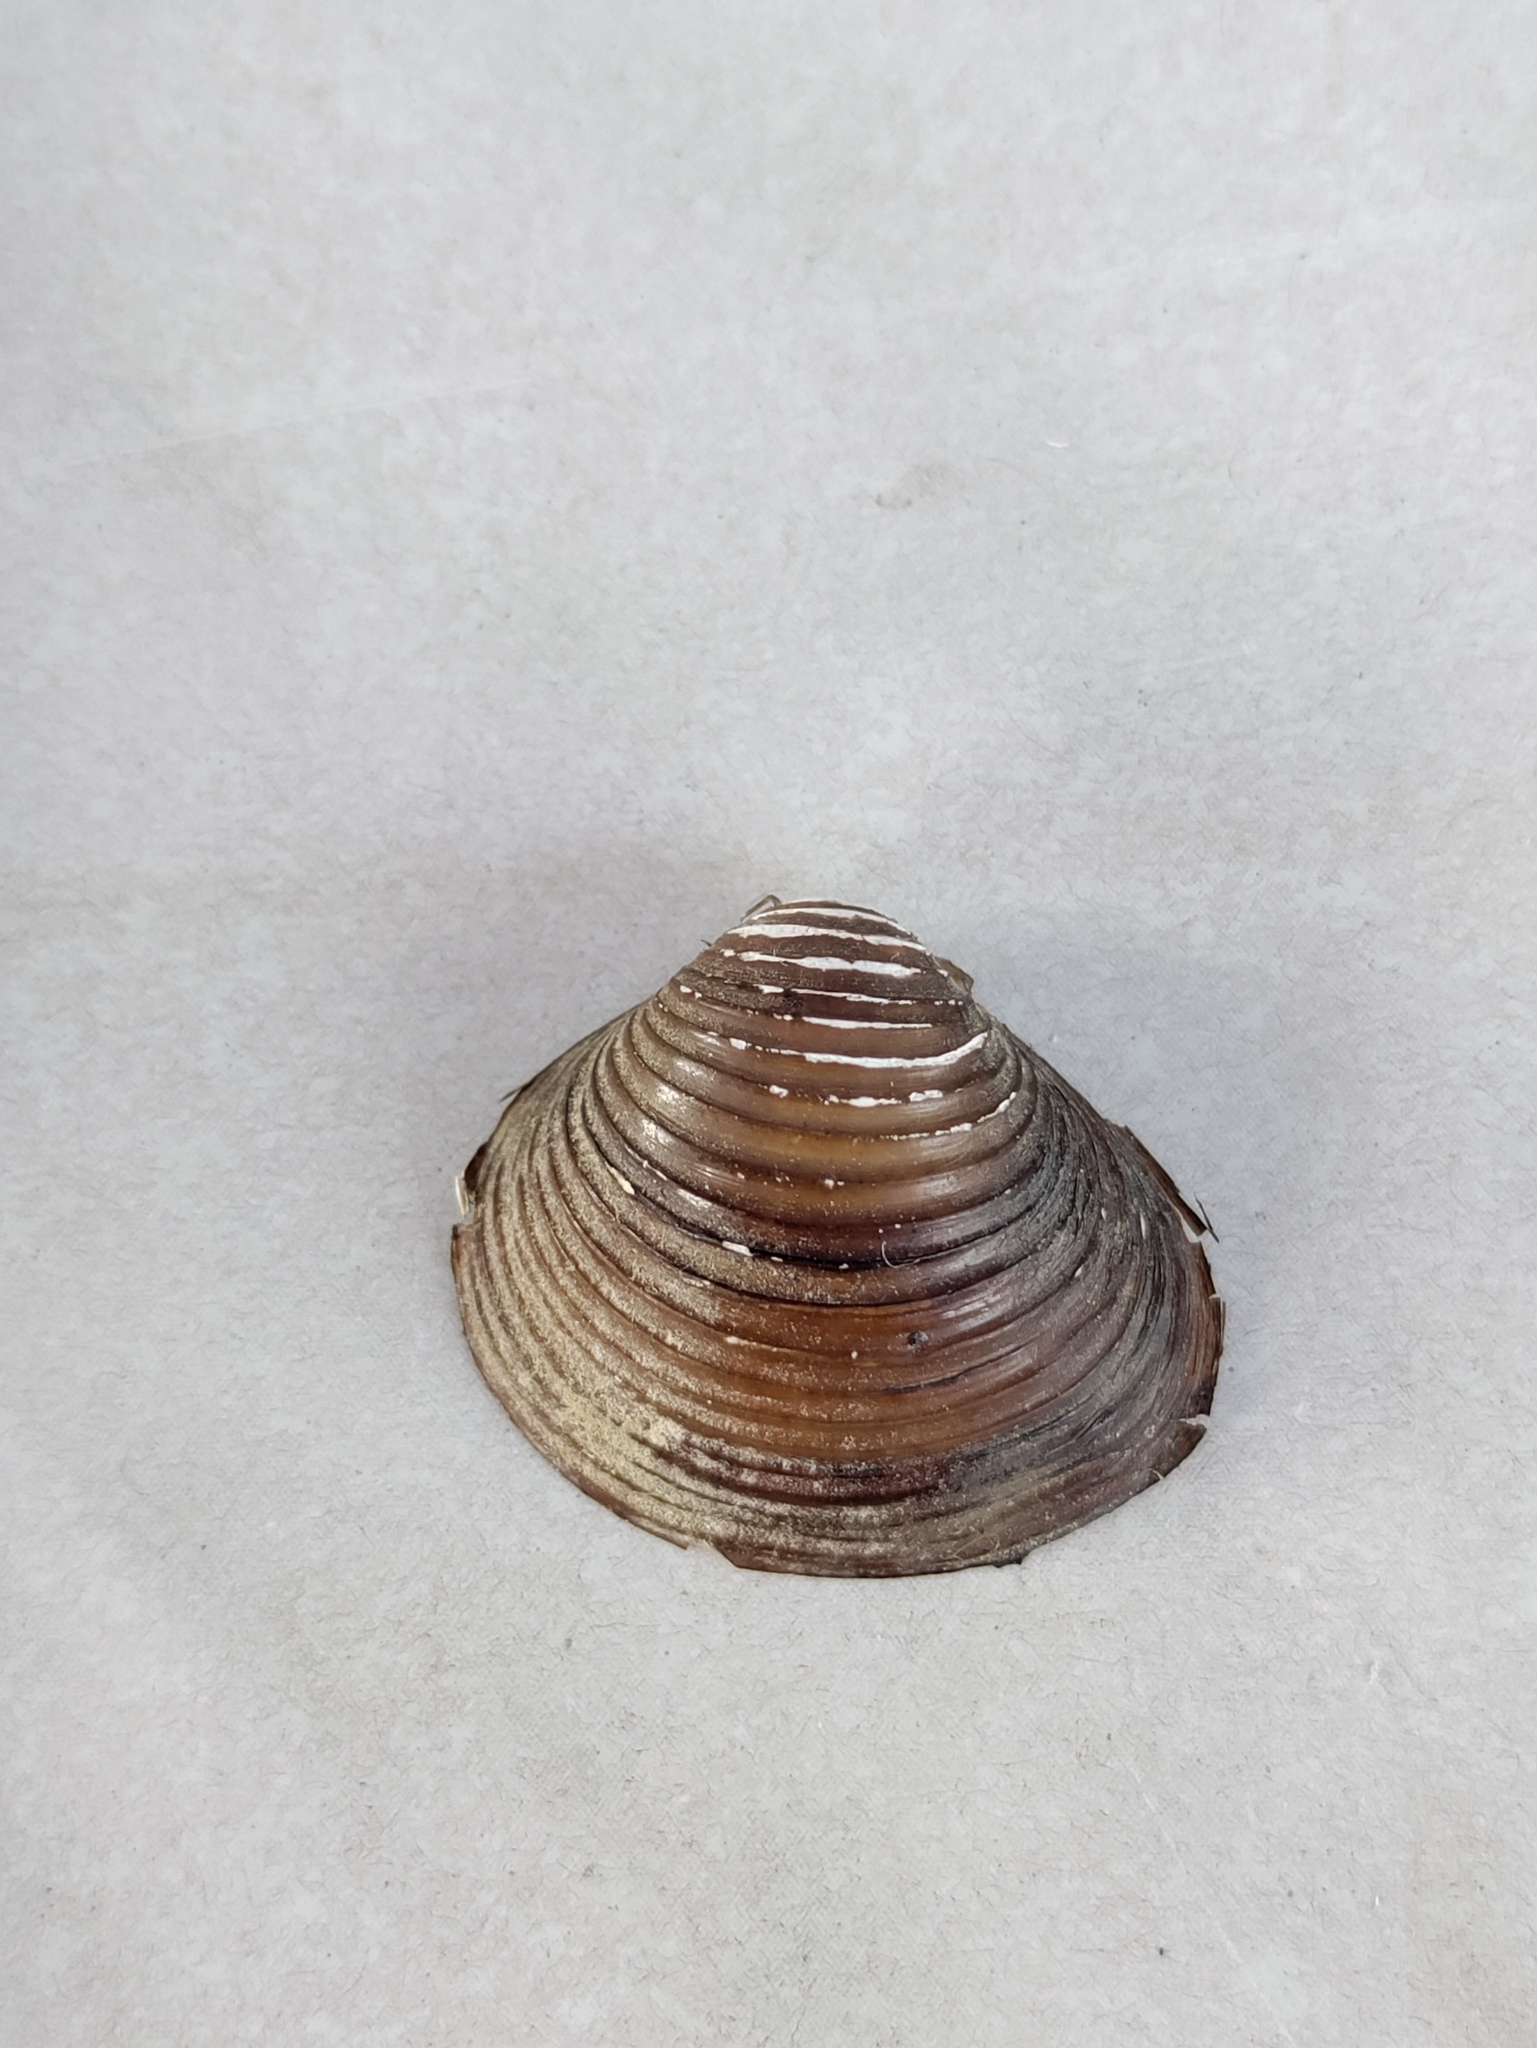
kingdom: Animalia
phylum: Mollusca
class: Bivalvia
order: Venerida
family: Cyrenidae
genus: Corbicula
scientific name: Corbicula fluminea
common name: Asian clam
